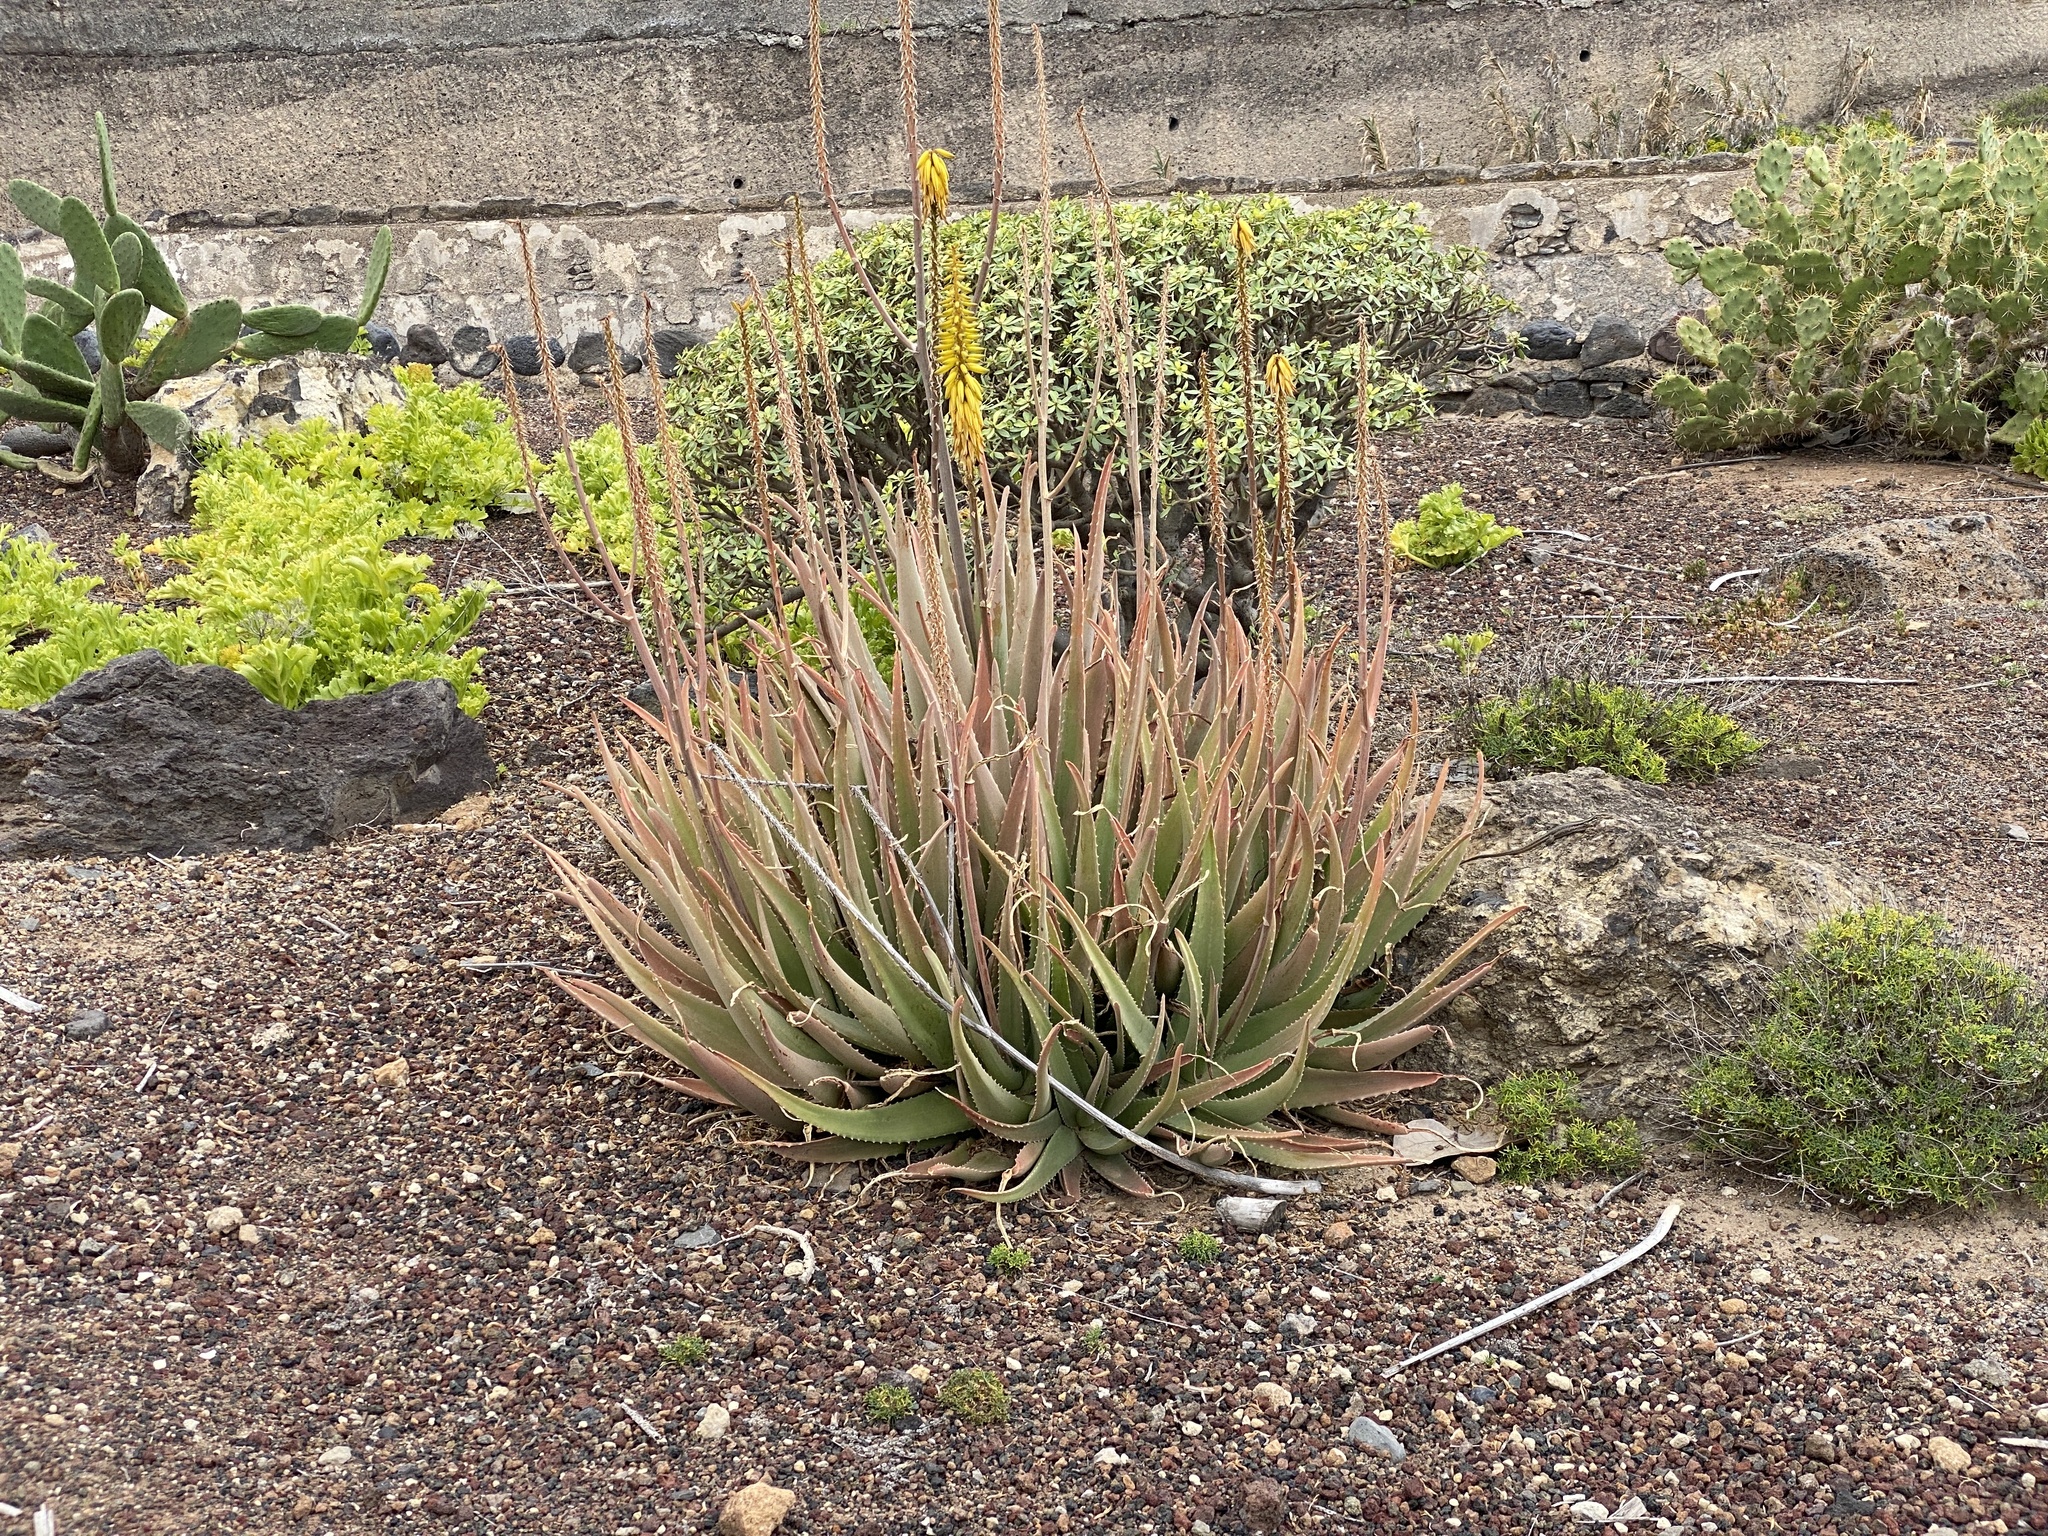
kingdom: Plantae
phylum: Tracheophyta
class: Liliopsida
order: Asparagales
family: Asphodelaceae
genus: Aloe
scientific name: Aloe vera
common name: Barbados aloe
